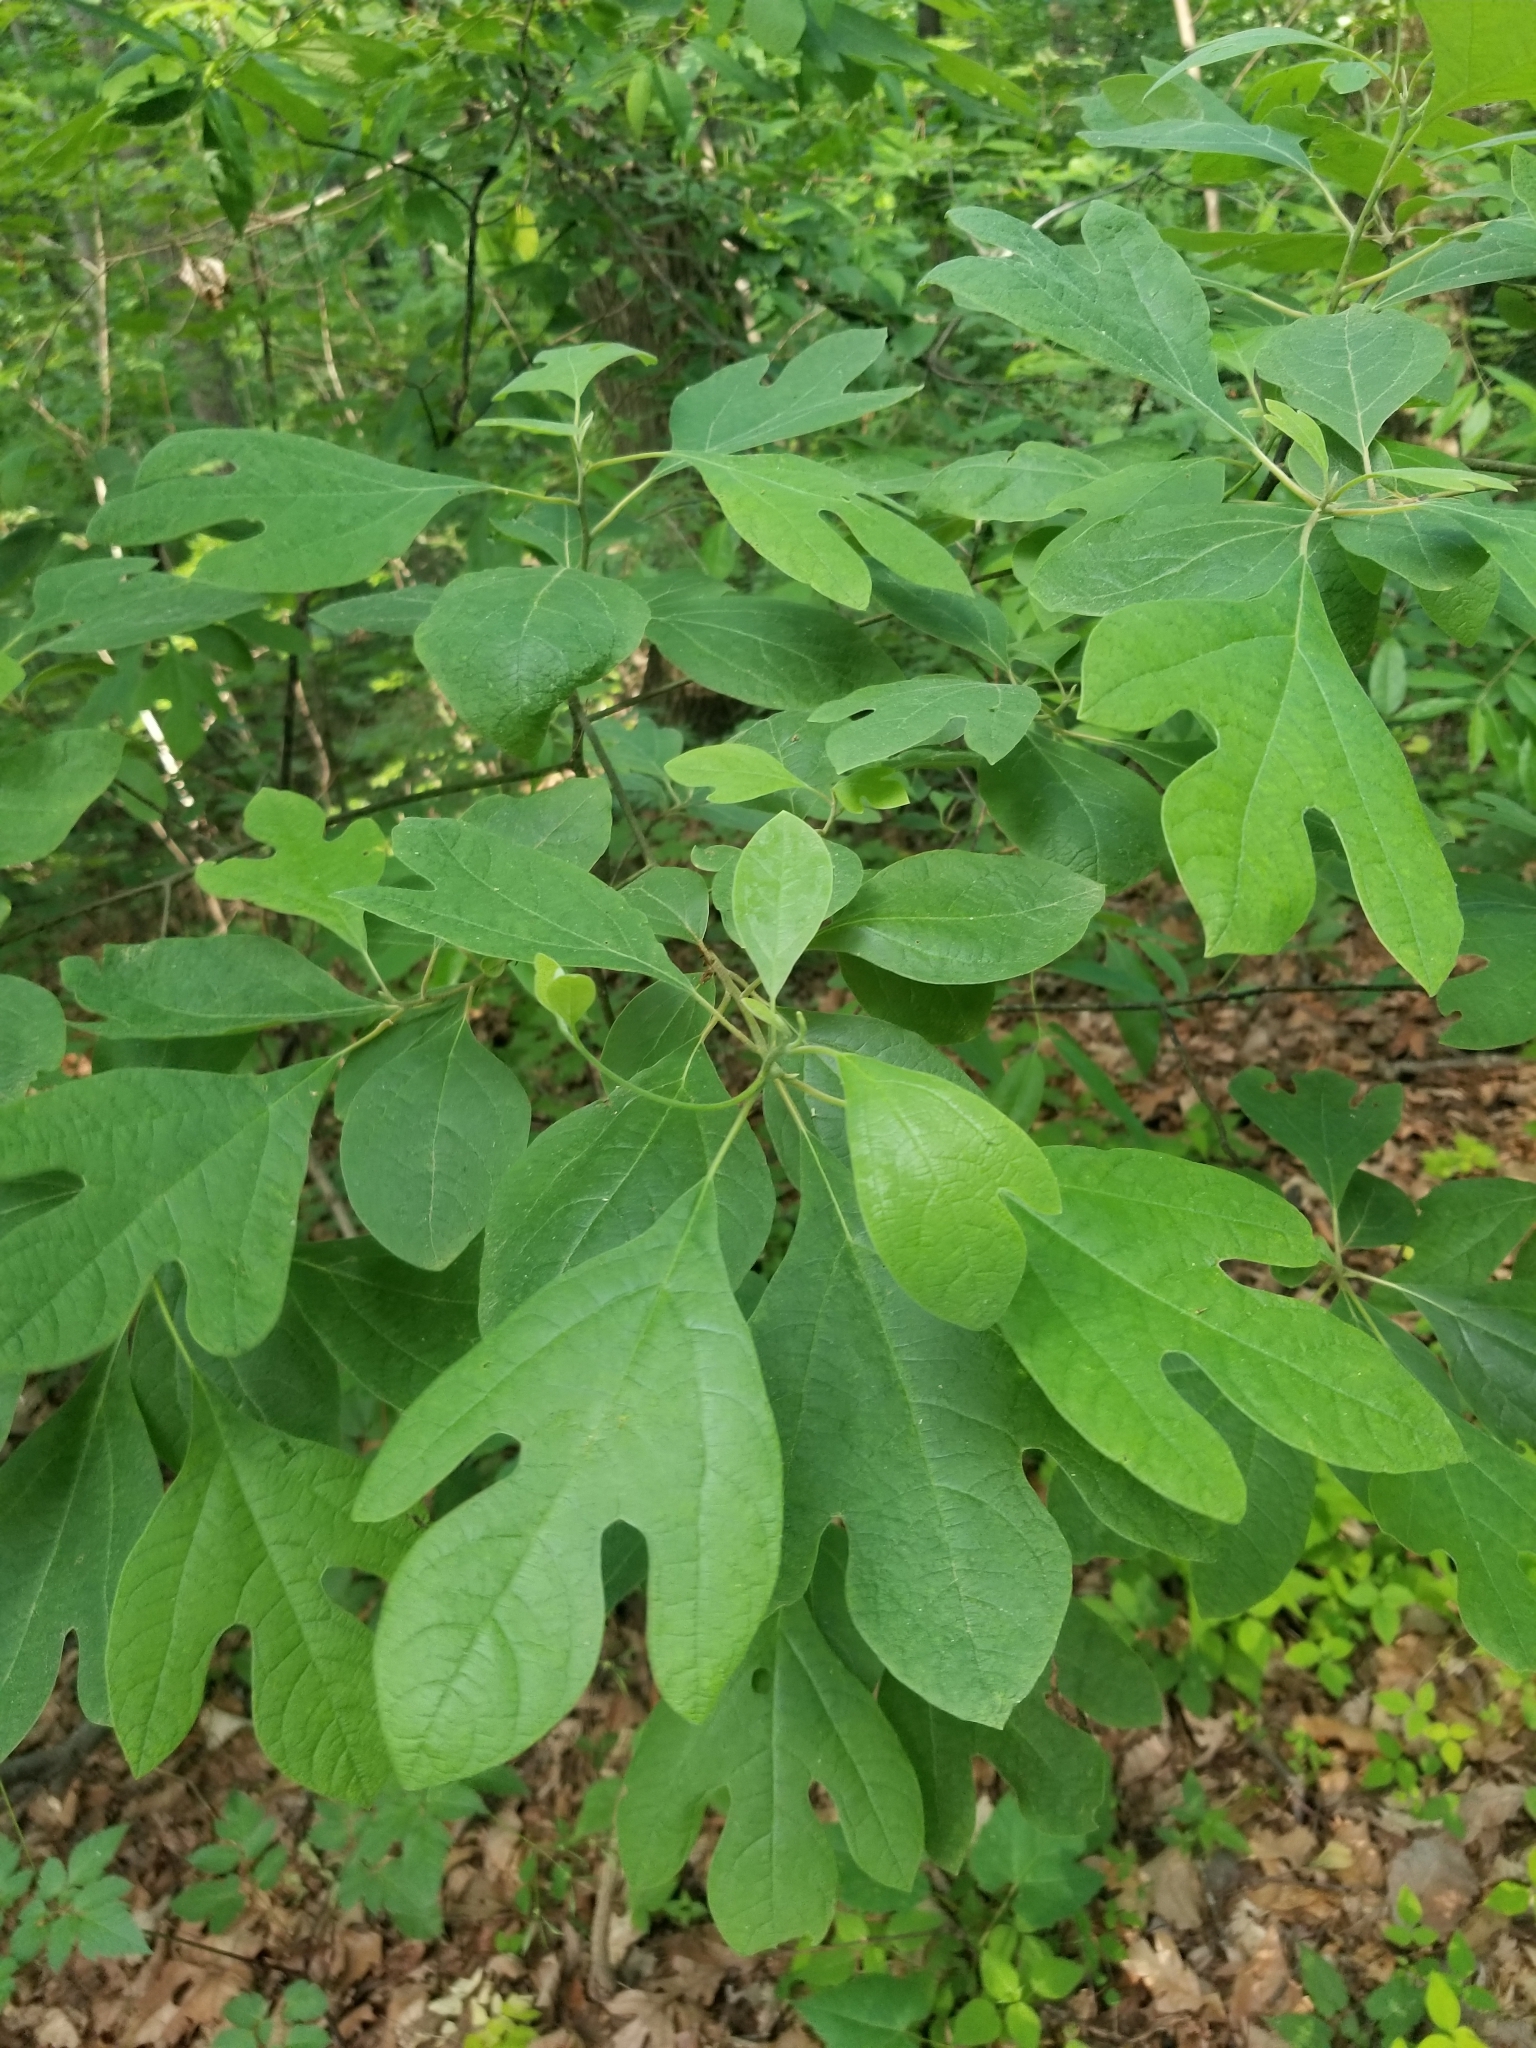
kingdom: Plantae
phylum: Tracheophyta
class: Magnoliopsida
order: Laurales
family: Lauraceae
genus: Sassafras
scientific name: Sassafras albidum
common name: Sassafras
